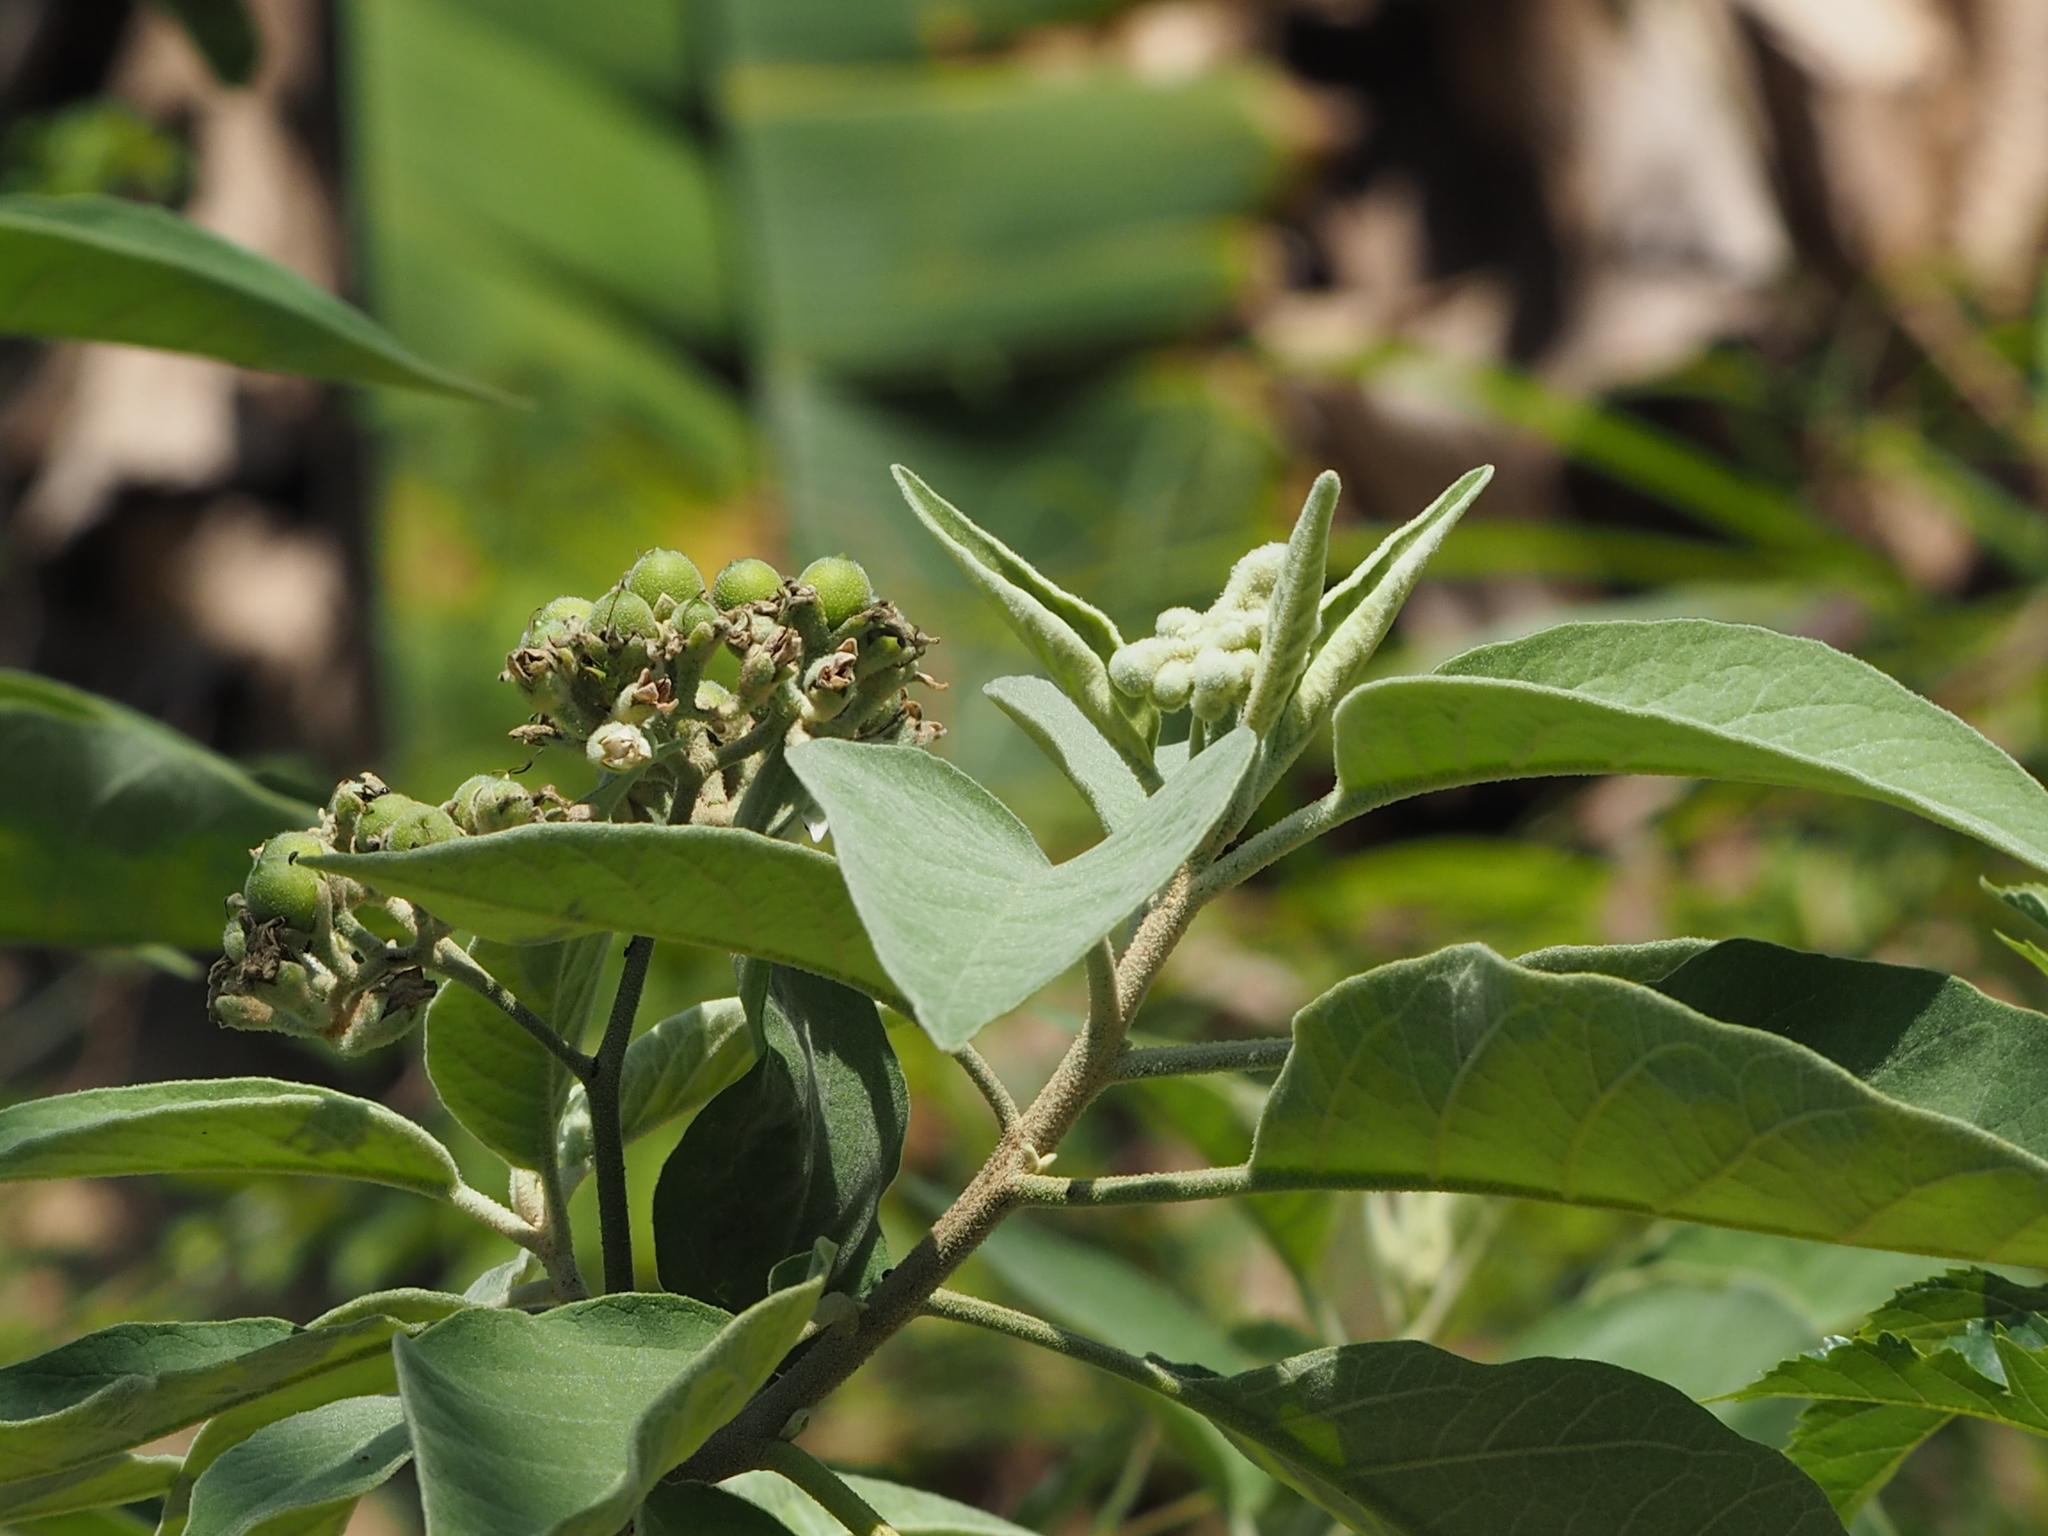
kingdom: Plantae
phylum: Tracheophyta
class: Magnoliopsida
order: Solanales
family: Solanaceae
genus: Solanum
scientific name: Solanum erianthum
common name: Tobacco-tree
